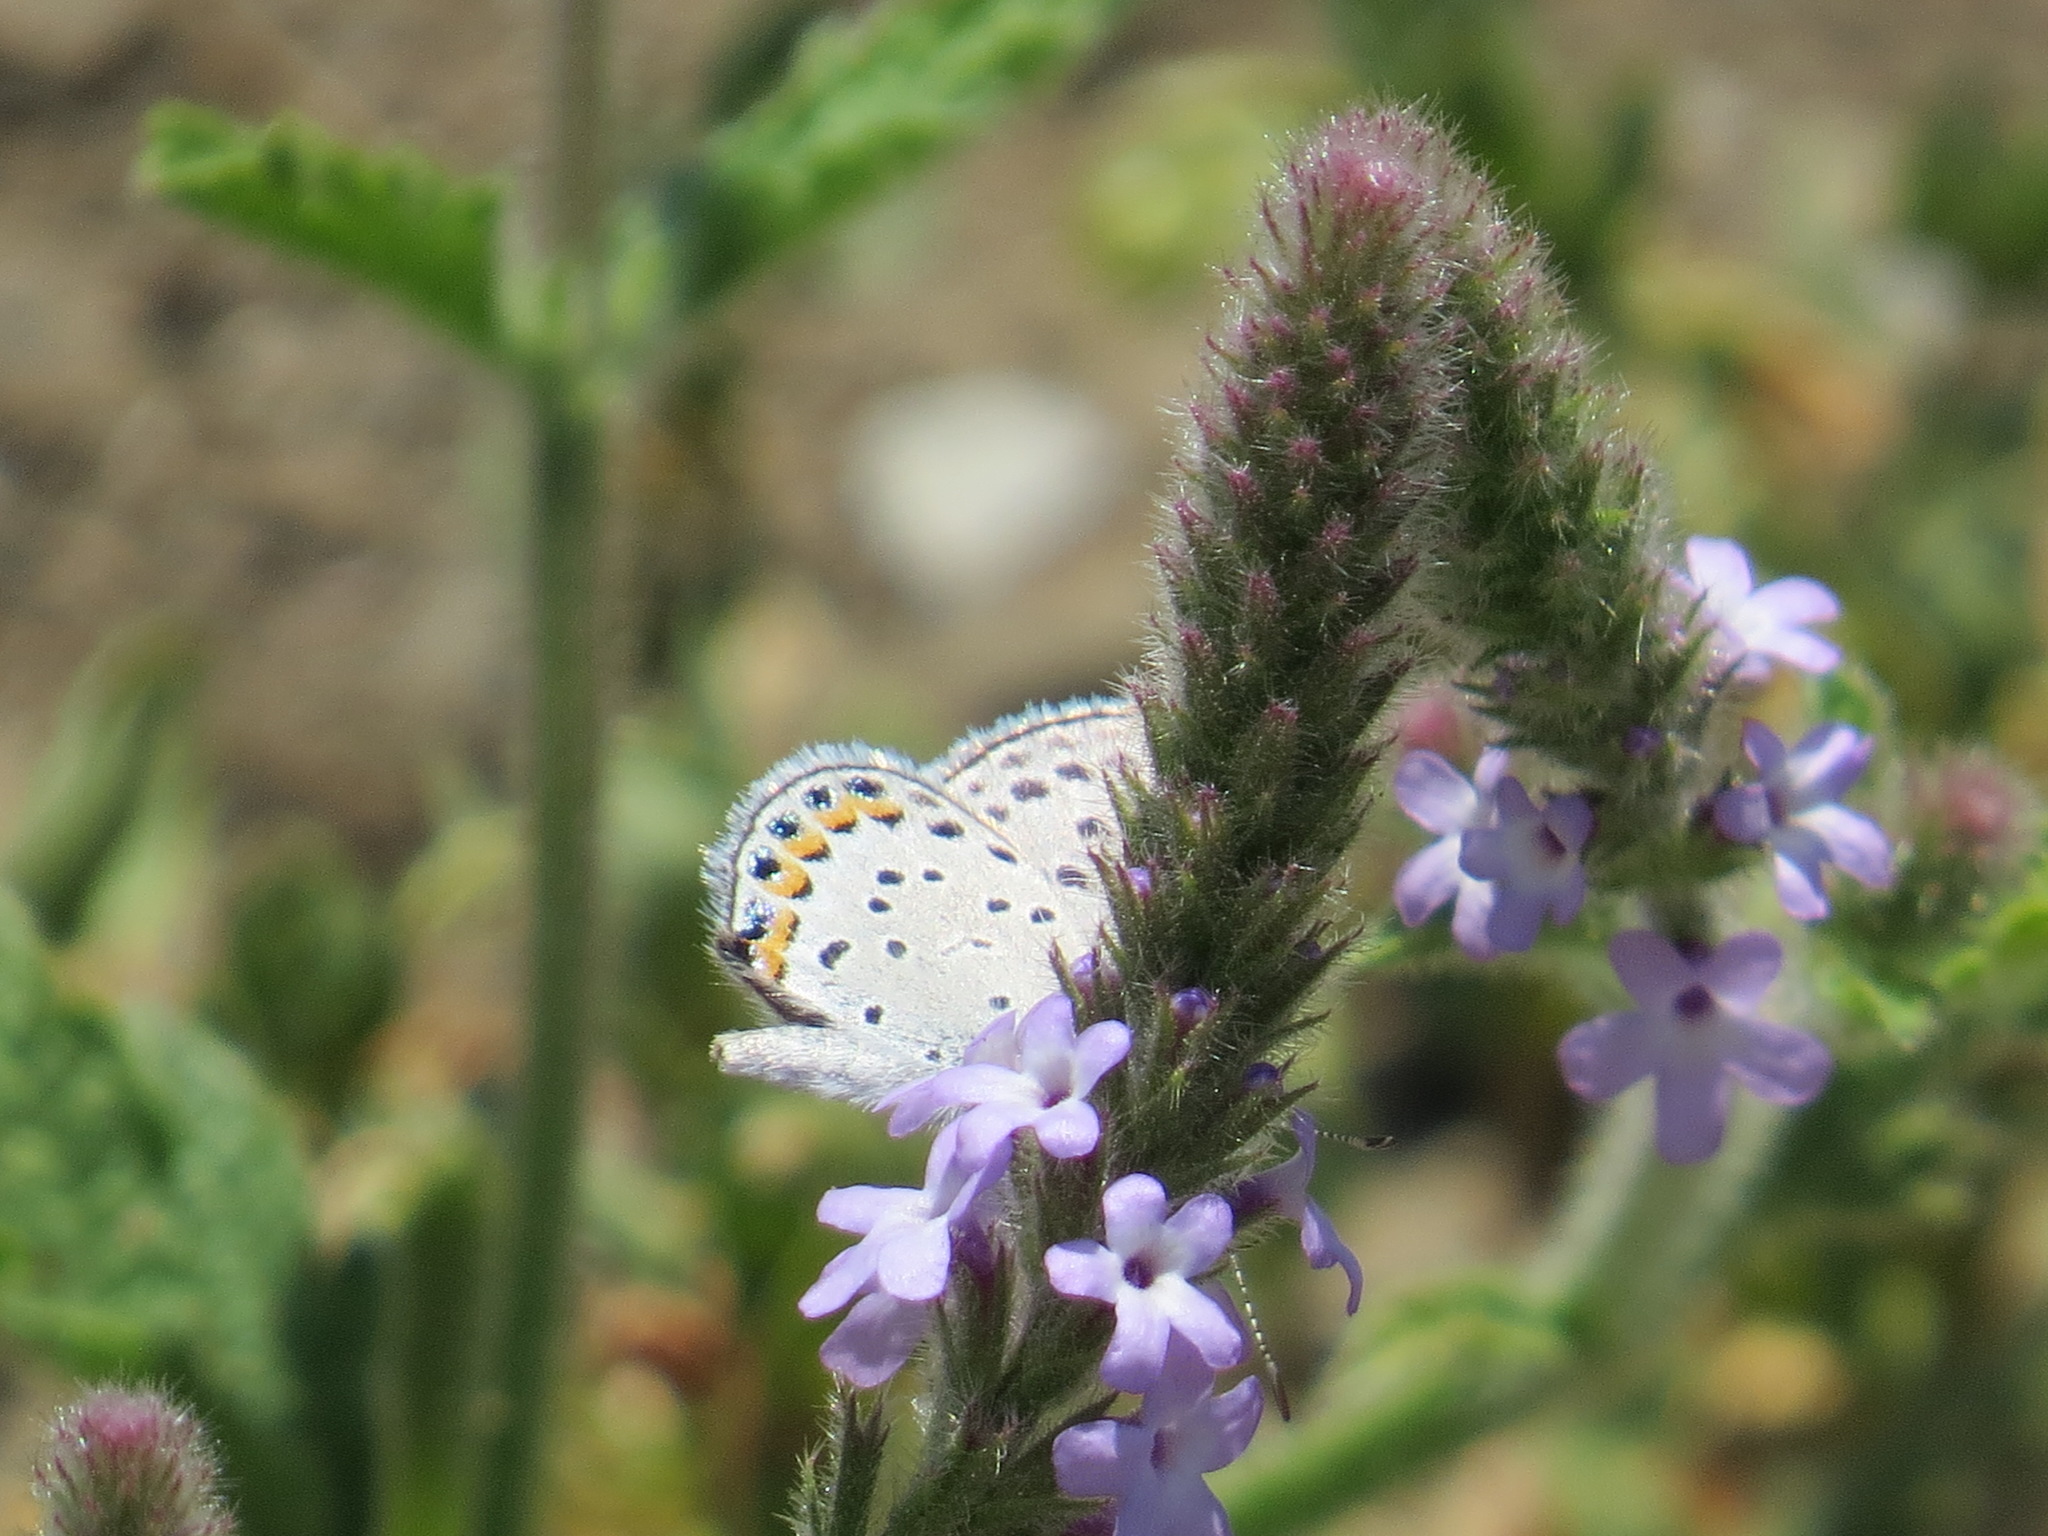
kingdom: Animalia
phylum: Arthropoda
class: Insecta
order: Lepidoptera
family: Lycaenidae
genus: Icaricia
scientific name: Icaricia acmon
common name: Acmon blue
